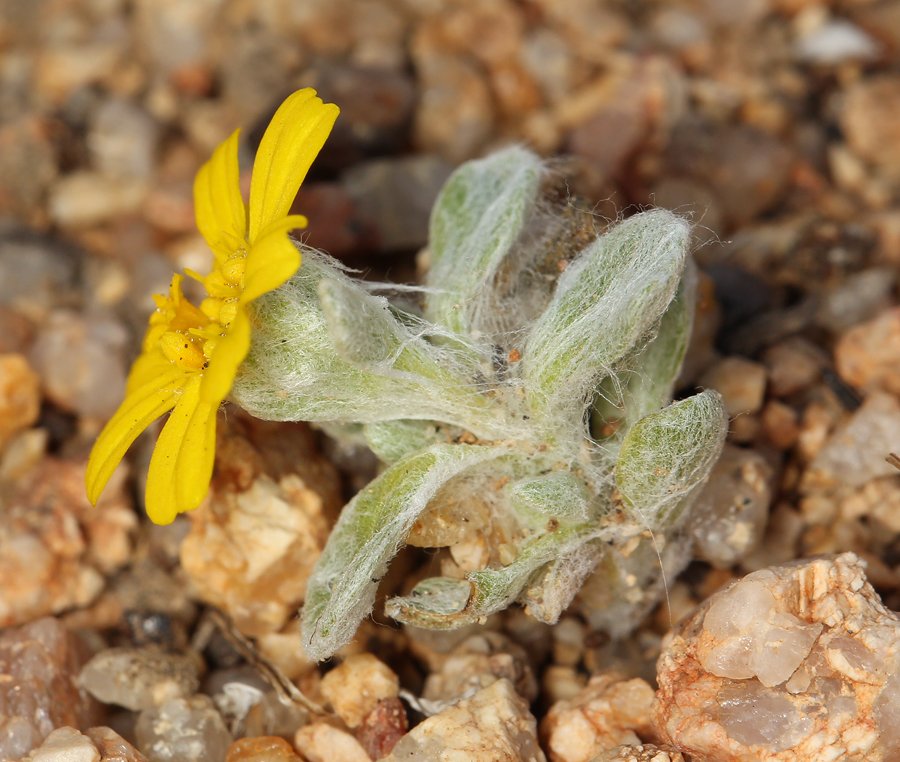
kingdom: Plantae
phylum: Tracheophyta
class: Magnoliopsida
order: Asterales
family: Asteraceae
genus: Eriophyllum
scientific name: Eriophyllum wallacei
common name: Wallace's woolly daisy
